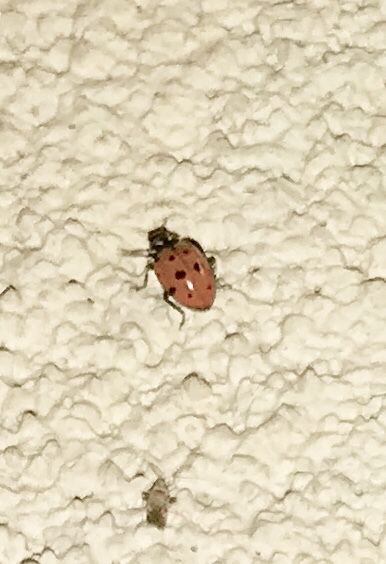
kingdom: Animalia
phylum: Arthropoda
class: Insecta
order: Coleoptera
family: Coccinellidae
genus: Hippodamia
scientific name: Hippodamia convergens
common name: Convergent lady beetle
